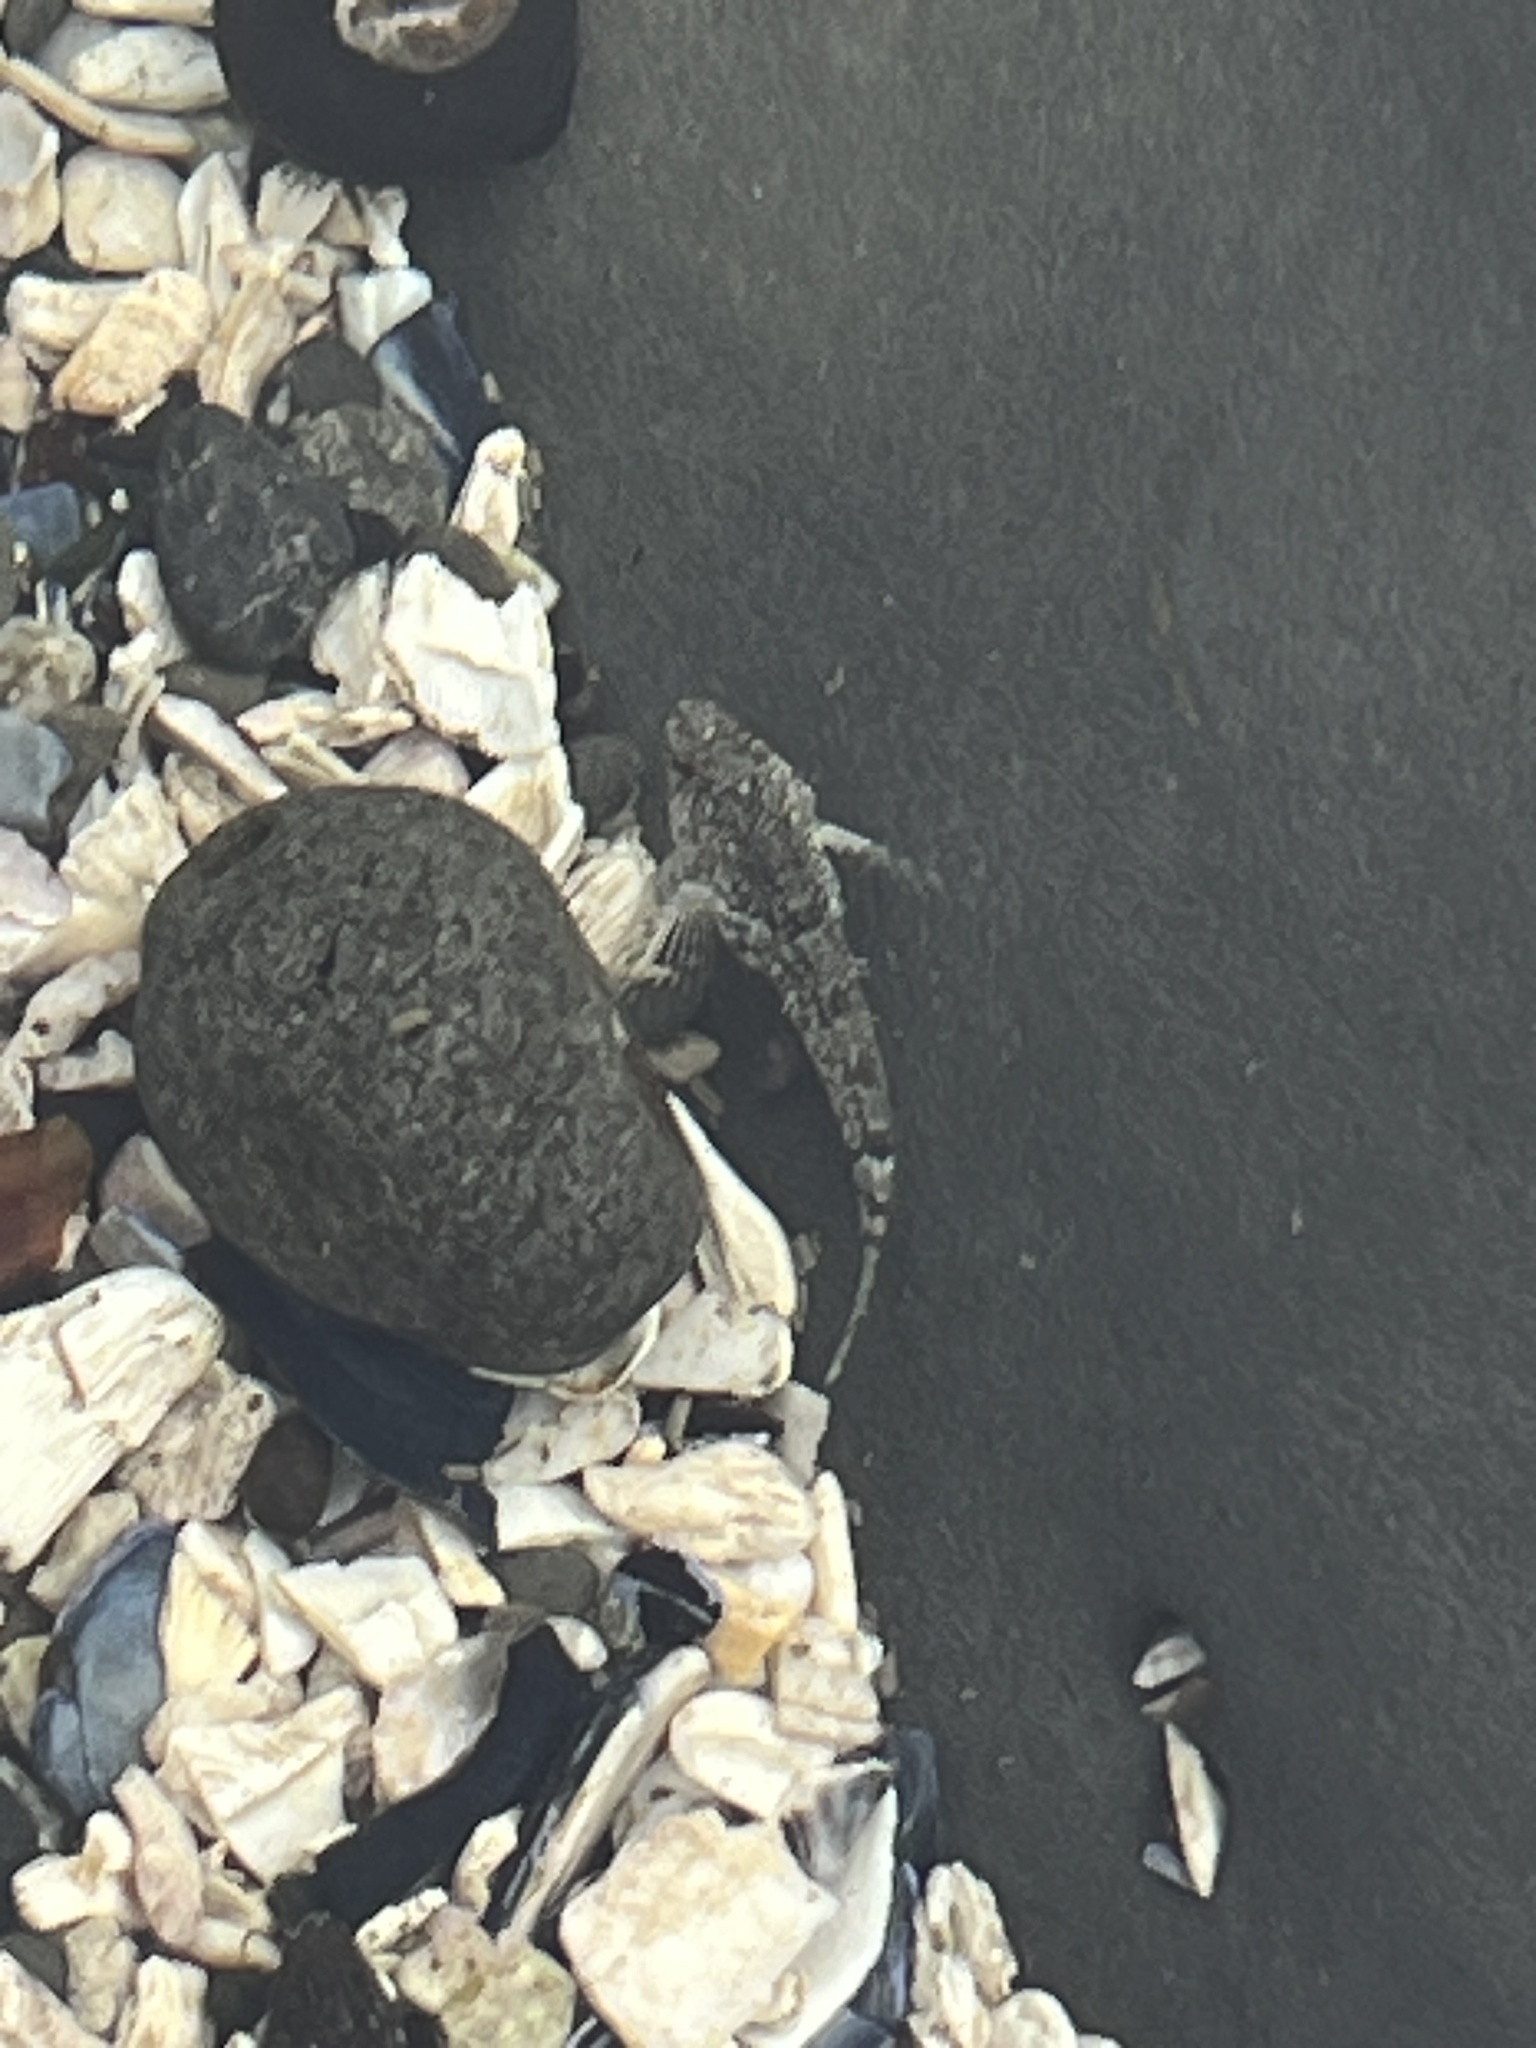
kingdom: Animalia
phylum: Chordata
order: Scorpaeniformes
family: Cottidae
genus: Clinocottus
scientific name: Clinocottus analis
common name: Woolly sculpin
